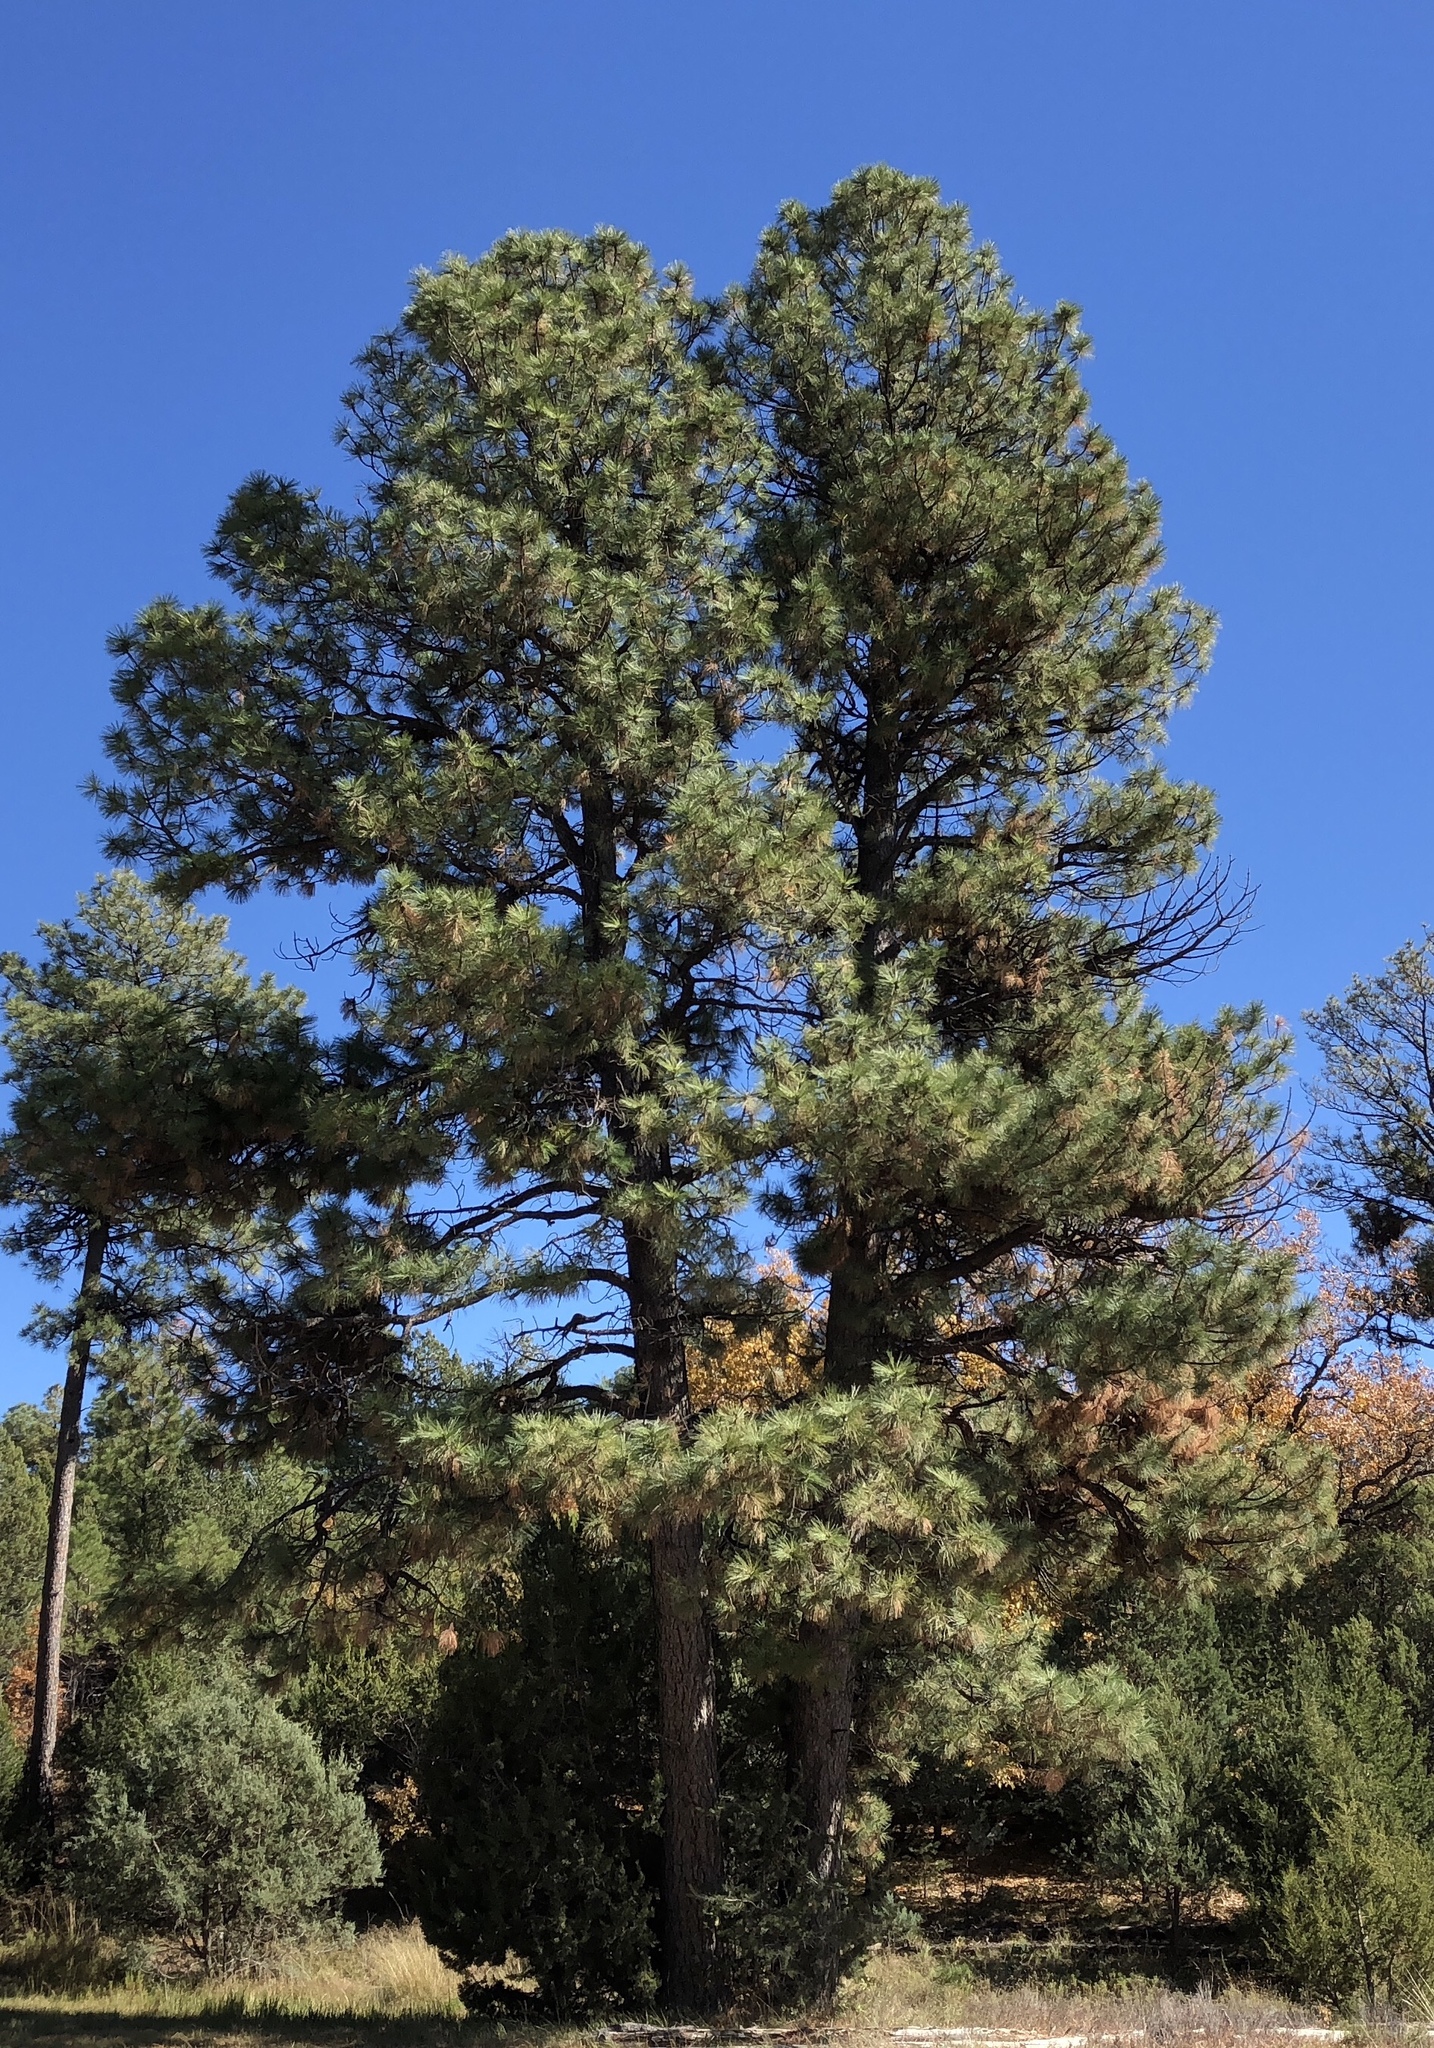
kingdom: Plantae
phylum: Tracheophyta
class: Pinopsida
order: Pinales
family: Pinaceae
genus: Pinus
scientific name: Pinus ponderosa
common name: Western yellow-pine
